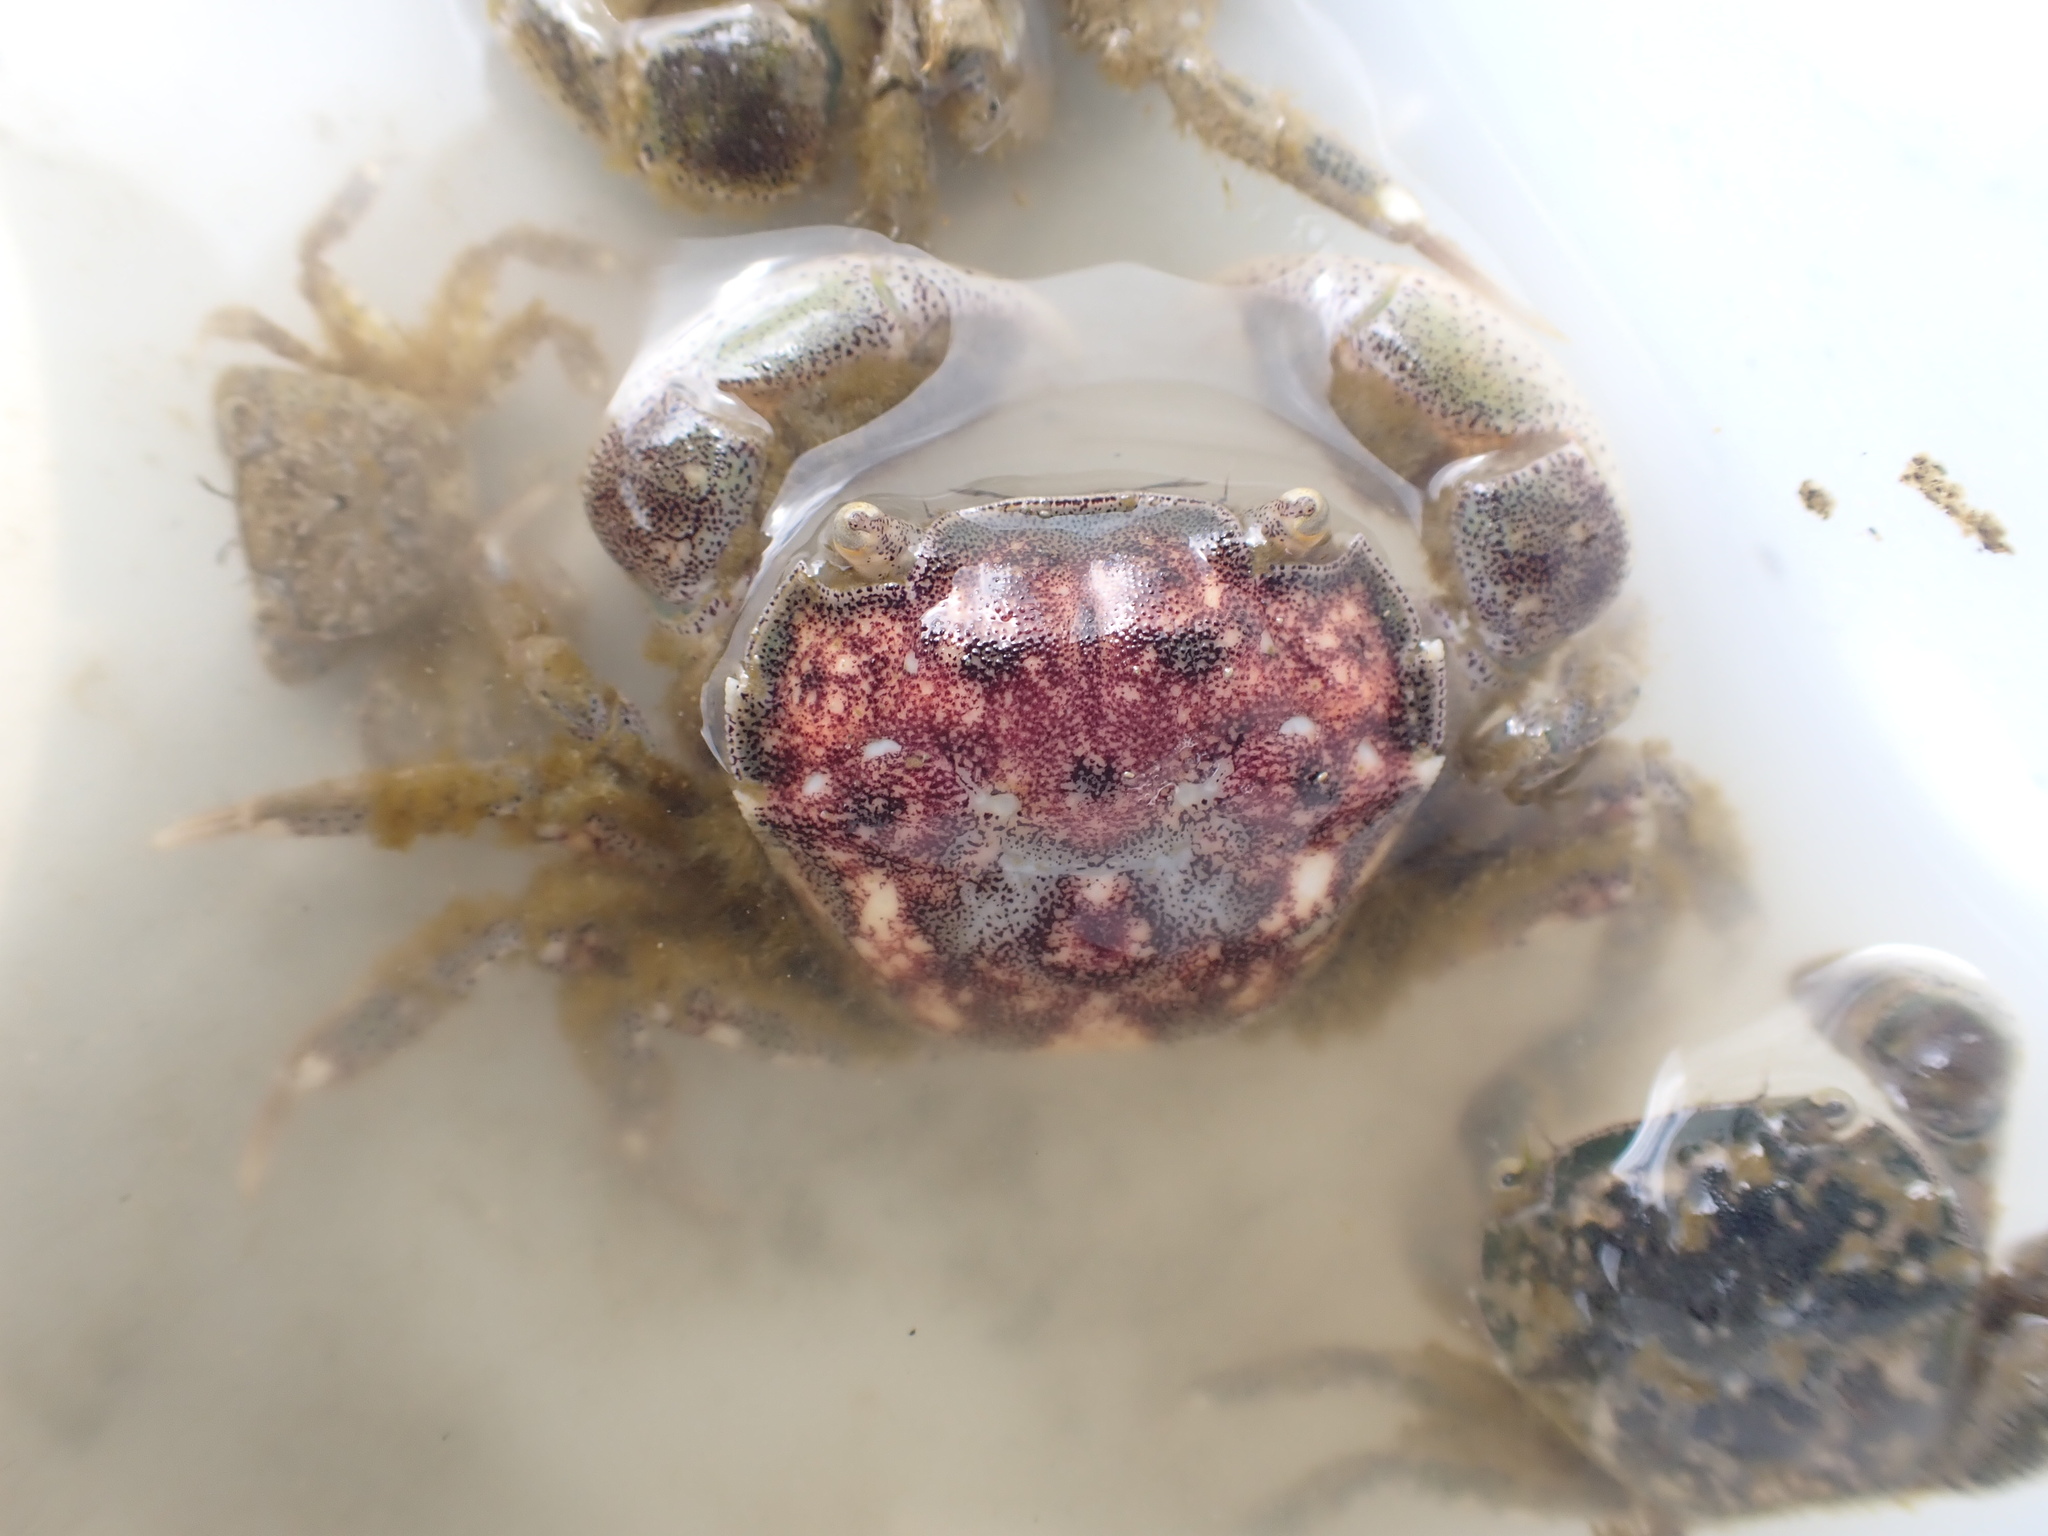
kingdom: Animalia
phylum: Arthropoda
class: Malacostraca
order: Decapoda
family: Varunidae
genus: Hemigrapsus
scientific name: Hemigrapsus crenulatus
